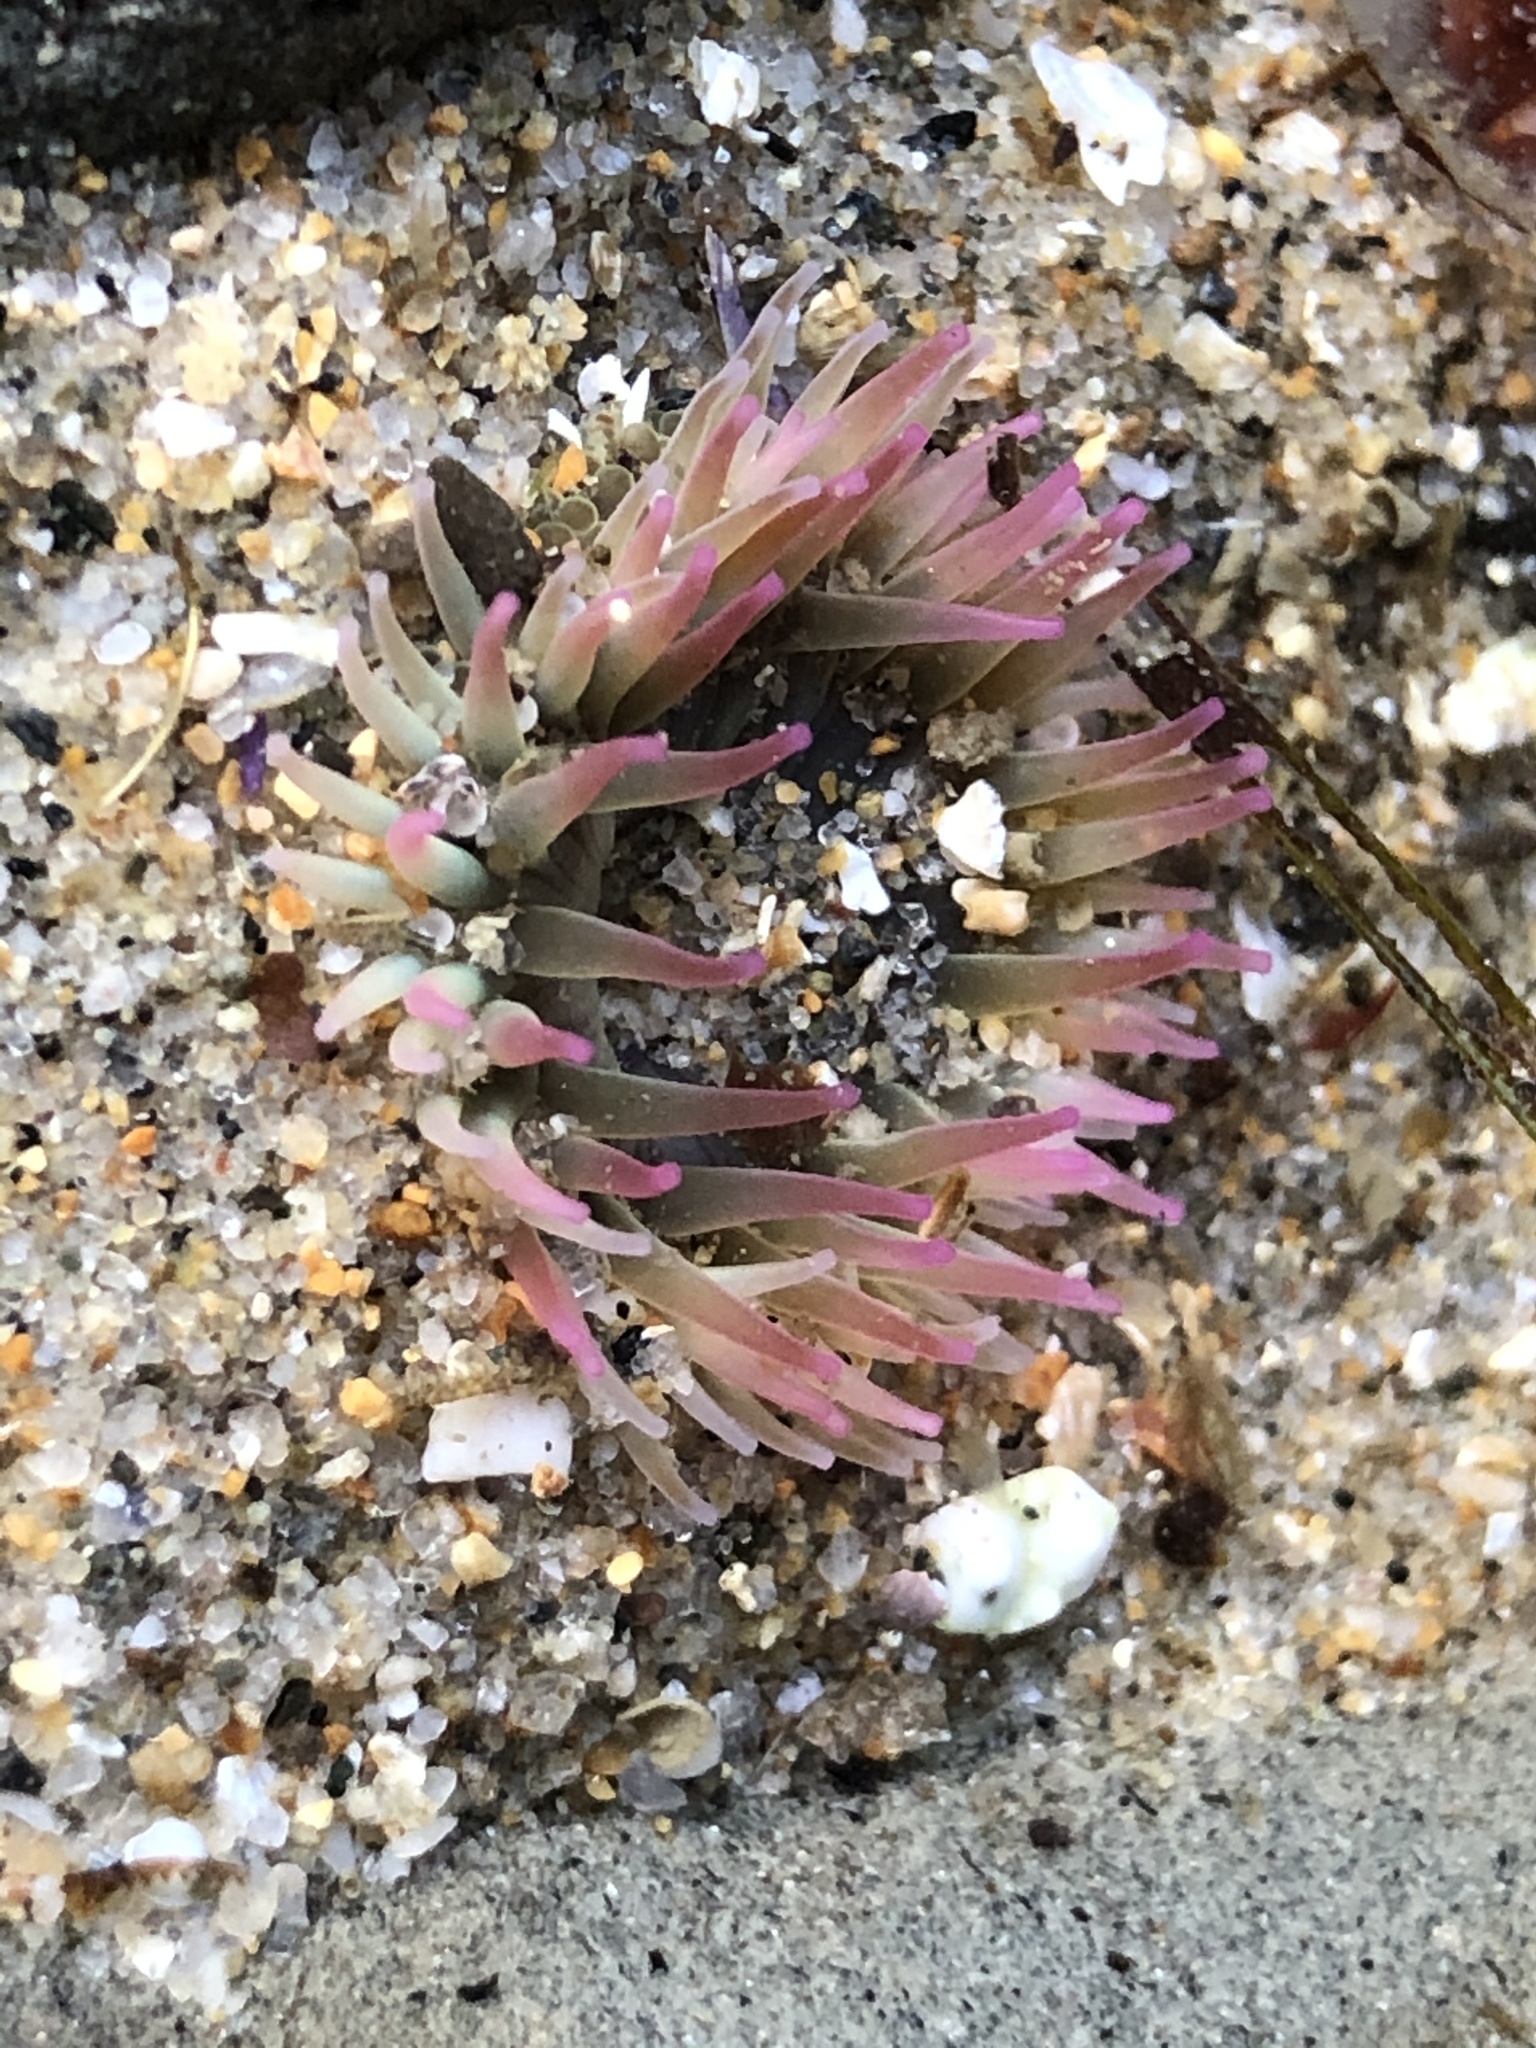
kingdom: Animalia
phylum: Cnidaria
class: Anthozoa
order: Actiniaria
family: Actiniidae
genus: Anthopleura
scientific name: Anthopleura elegantissima
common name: Clonal anemone
